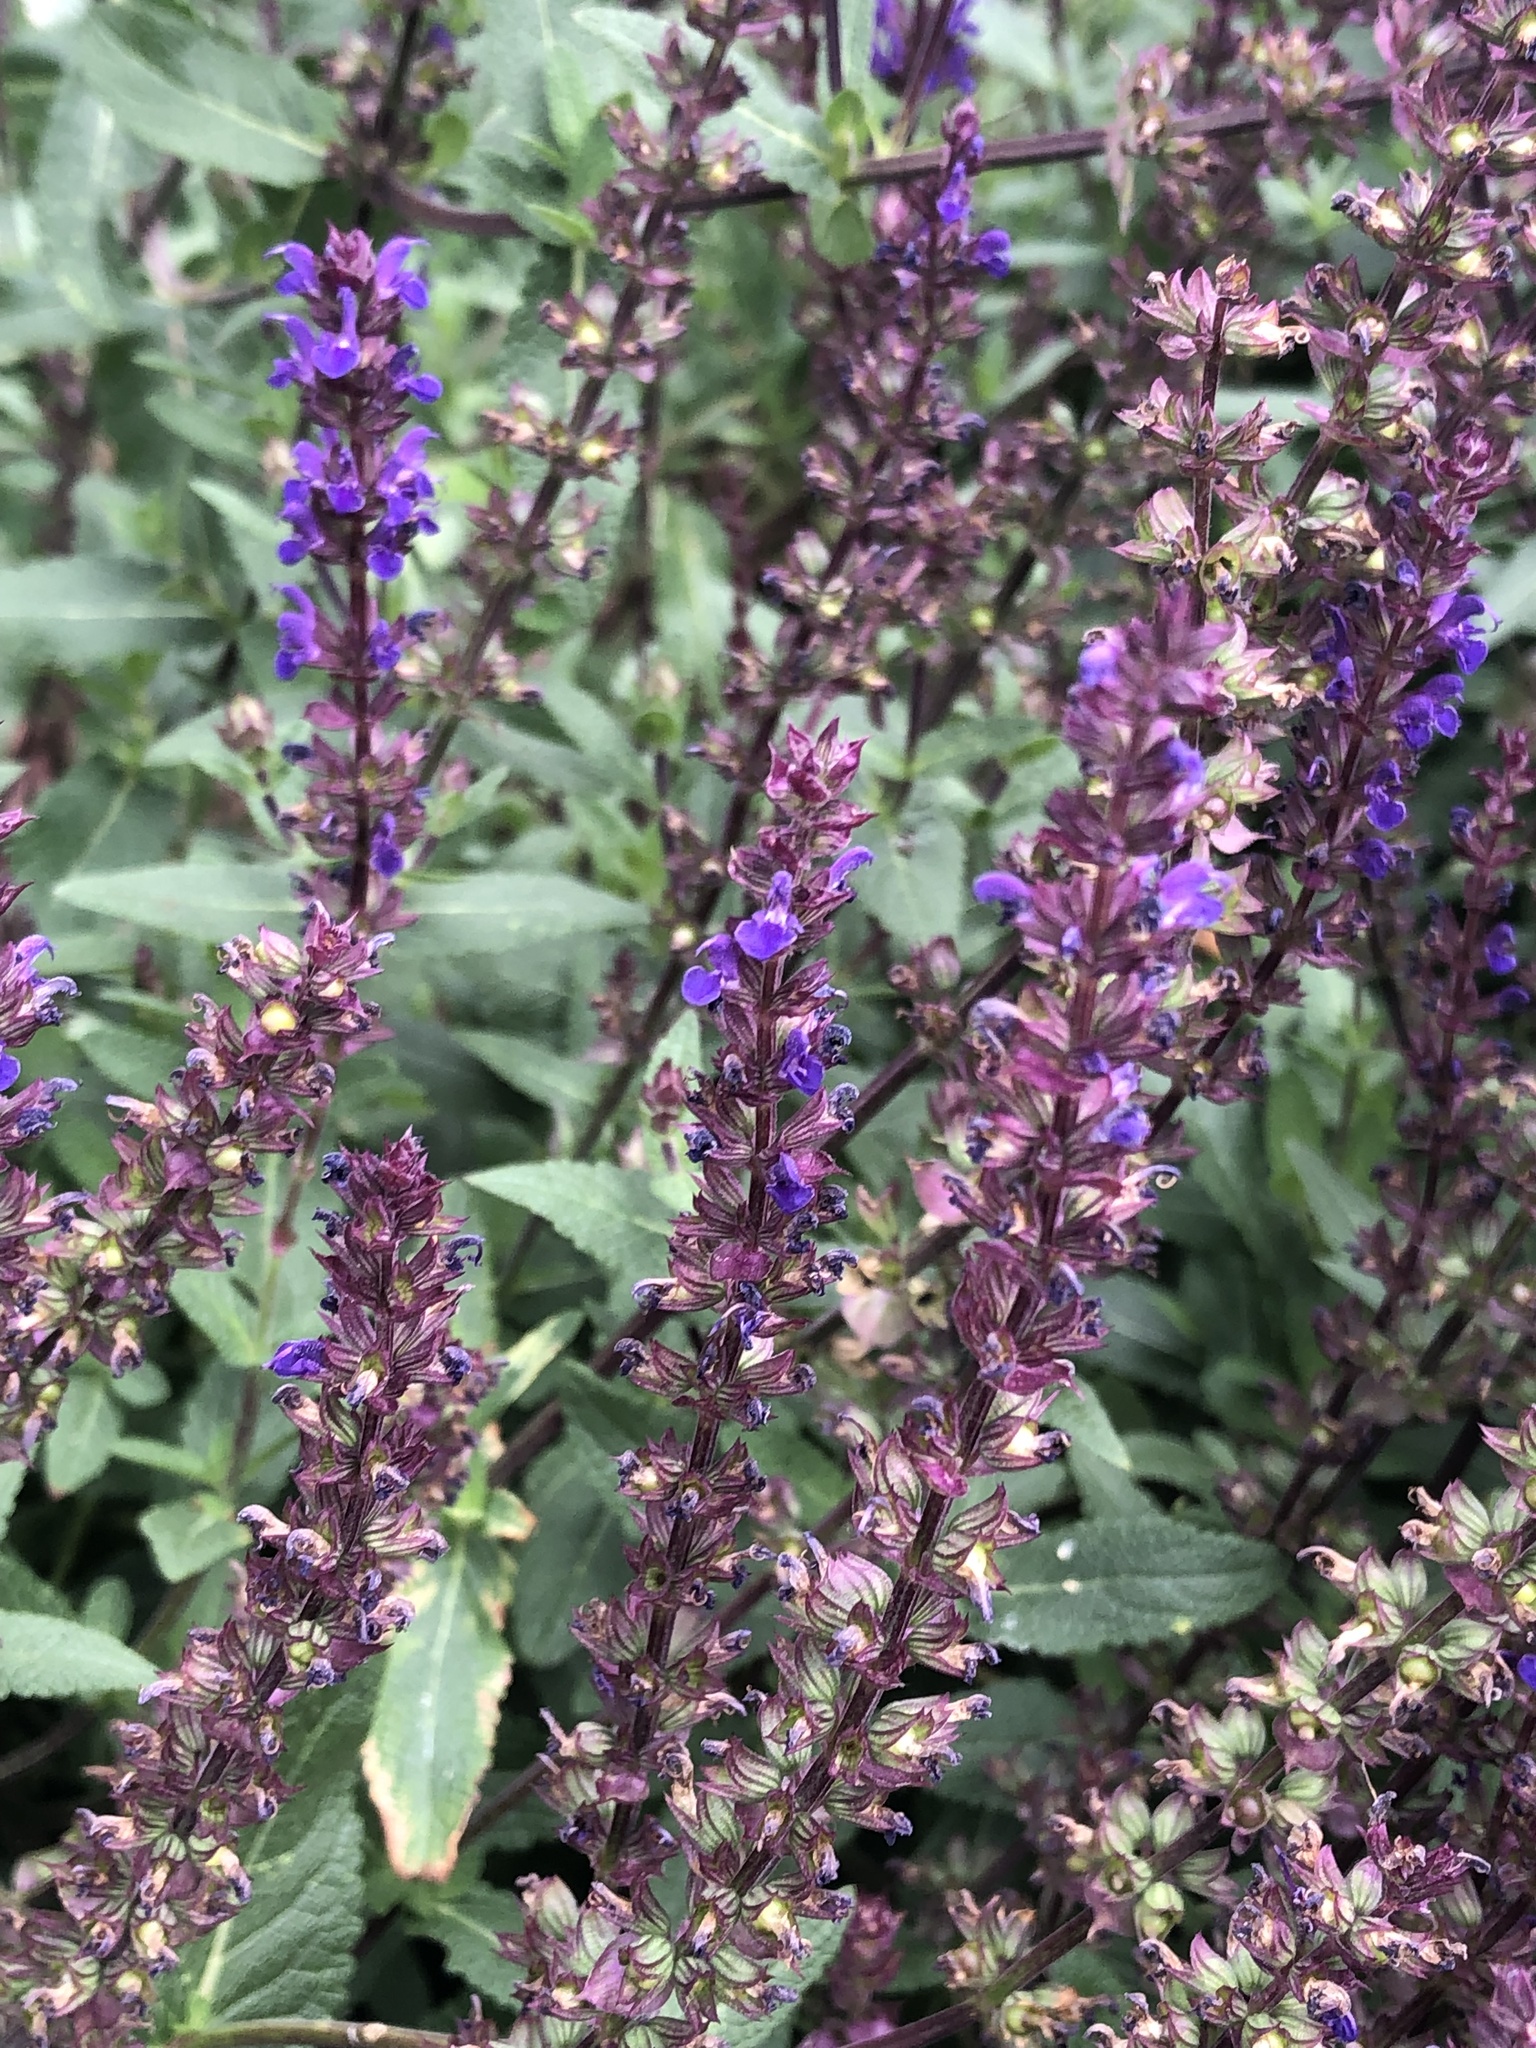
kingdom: Plantae
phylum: Tracheophyta
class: Magnoliopsida
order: Lamiales
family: Lamiaceae
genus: Salvia
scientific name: Salvia nemorosa
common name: Balkan clary
